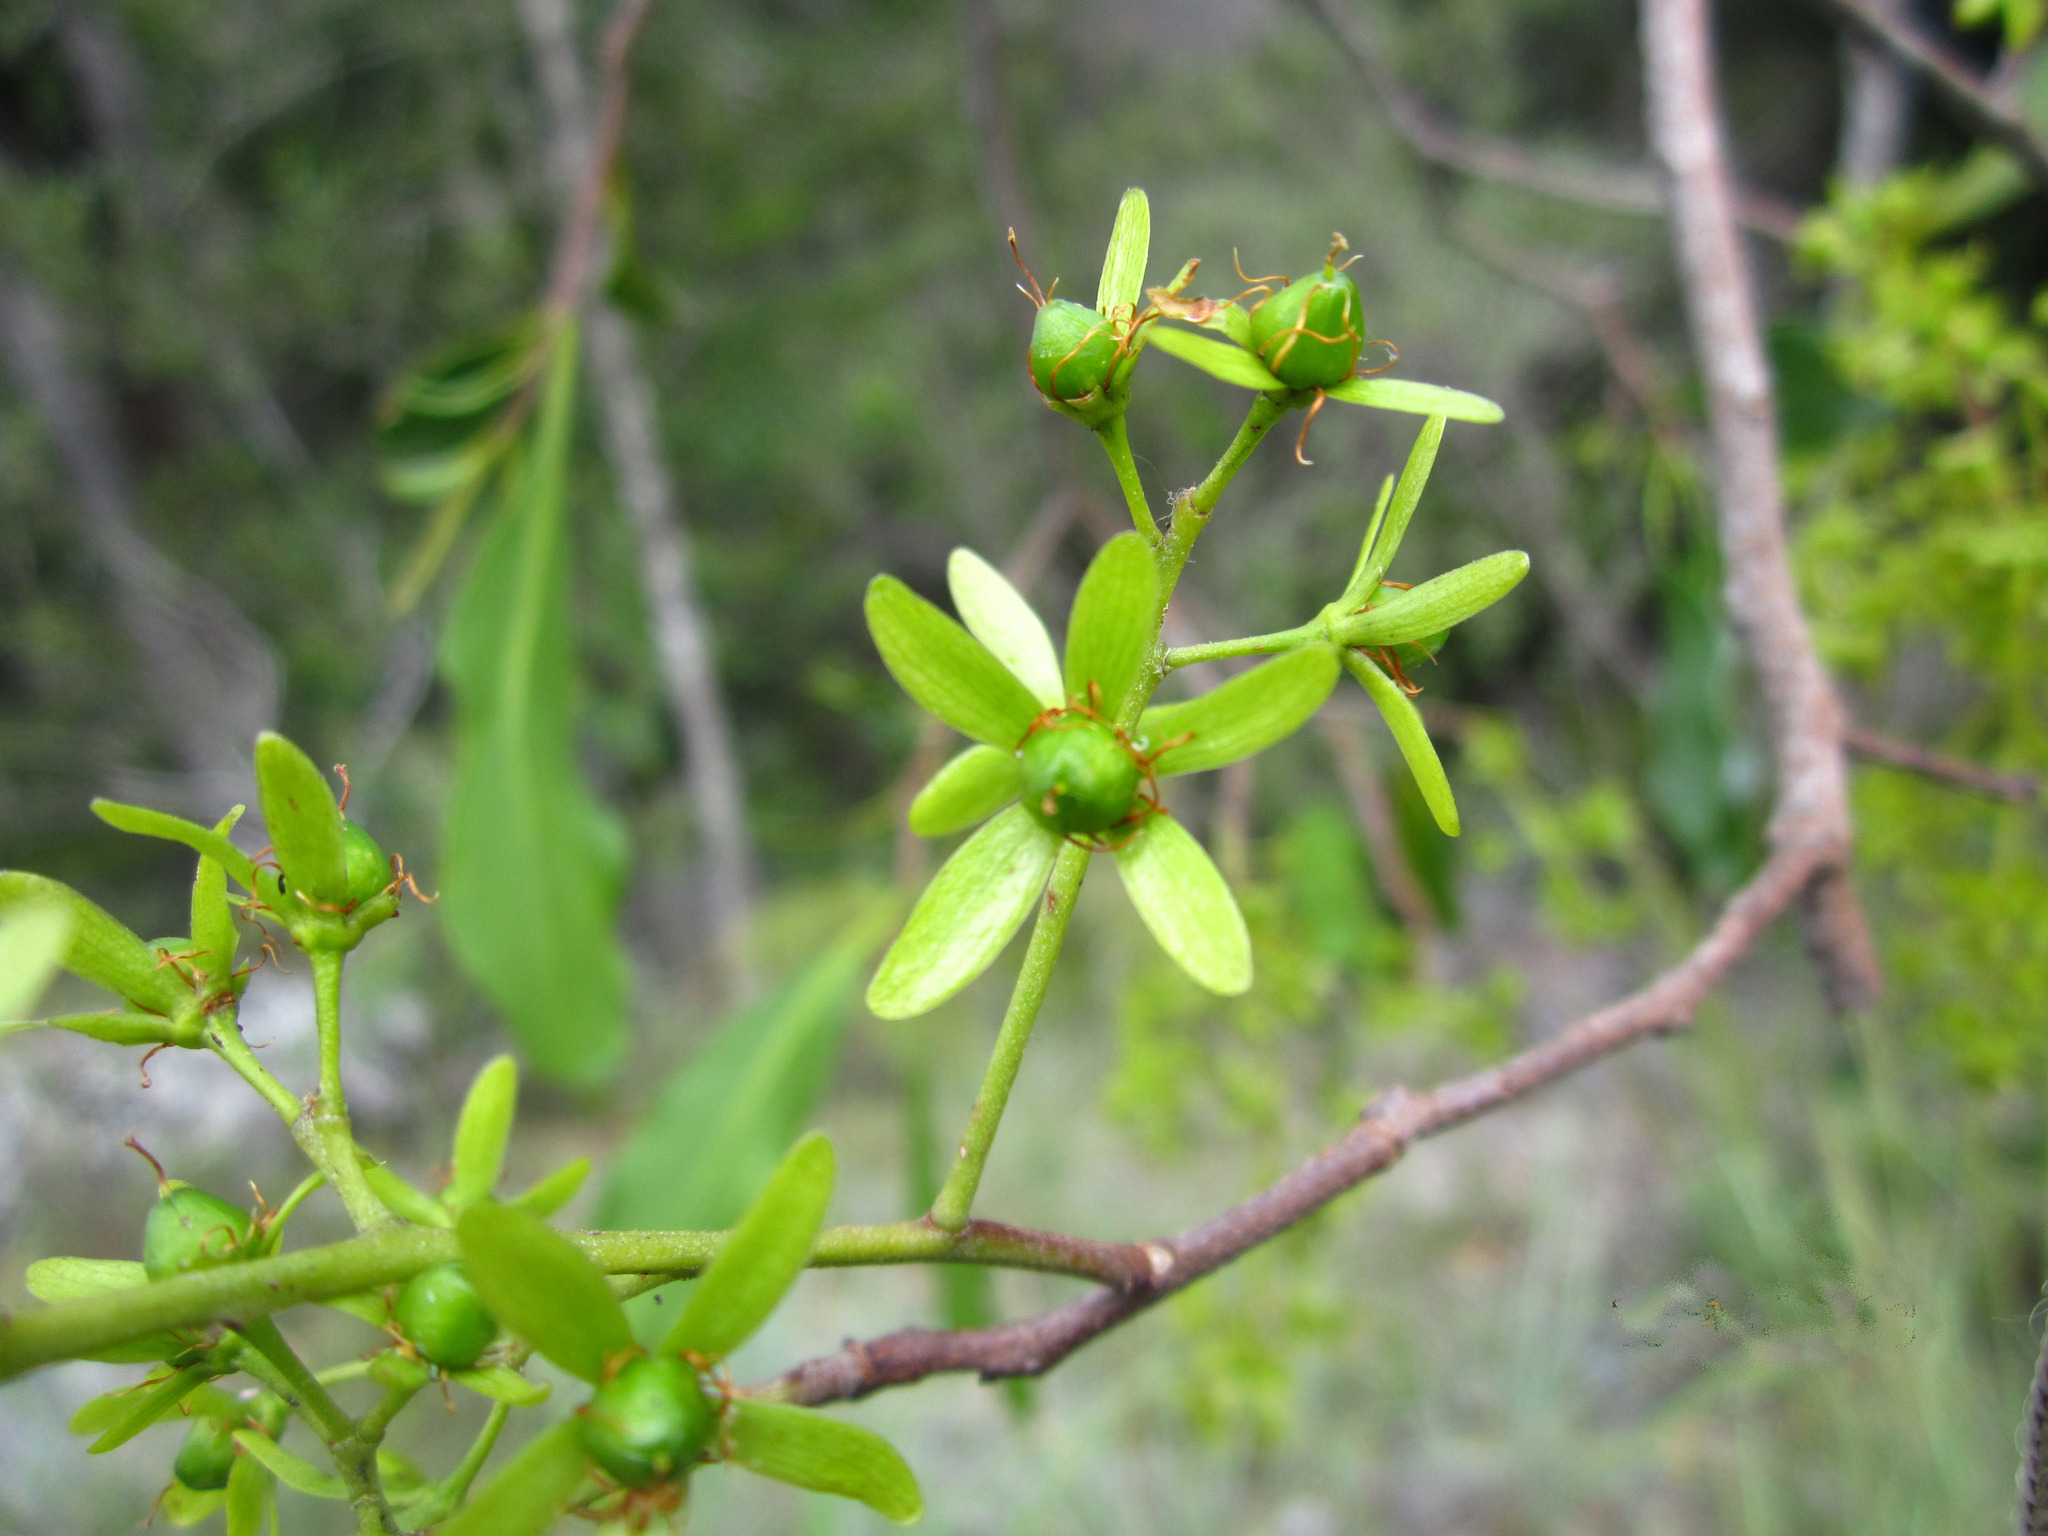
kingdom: Plantae
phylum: Tracheophyta
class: Magnoliopsida
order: Caryophyllales
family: Asteropeiaceae
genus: Asteropeia
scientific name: Asteropeia amblyocarpa
